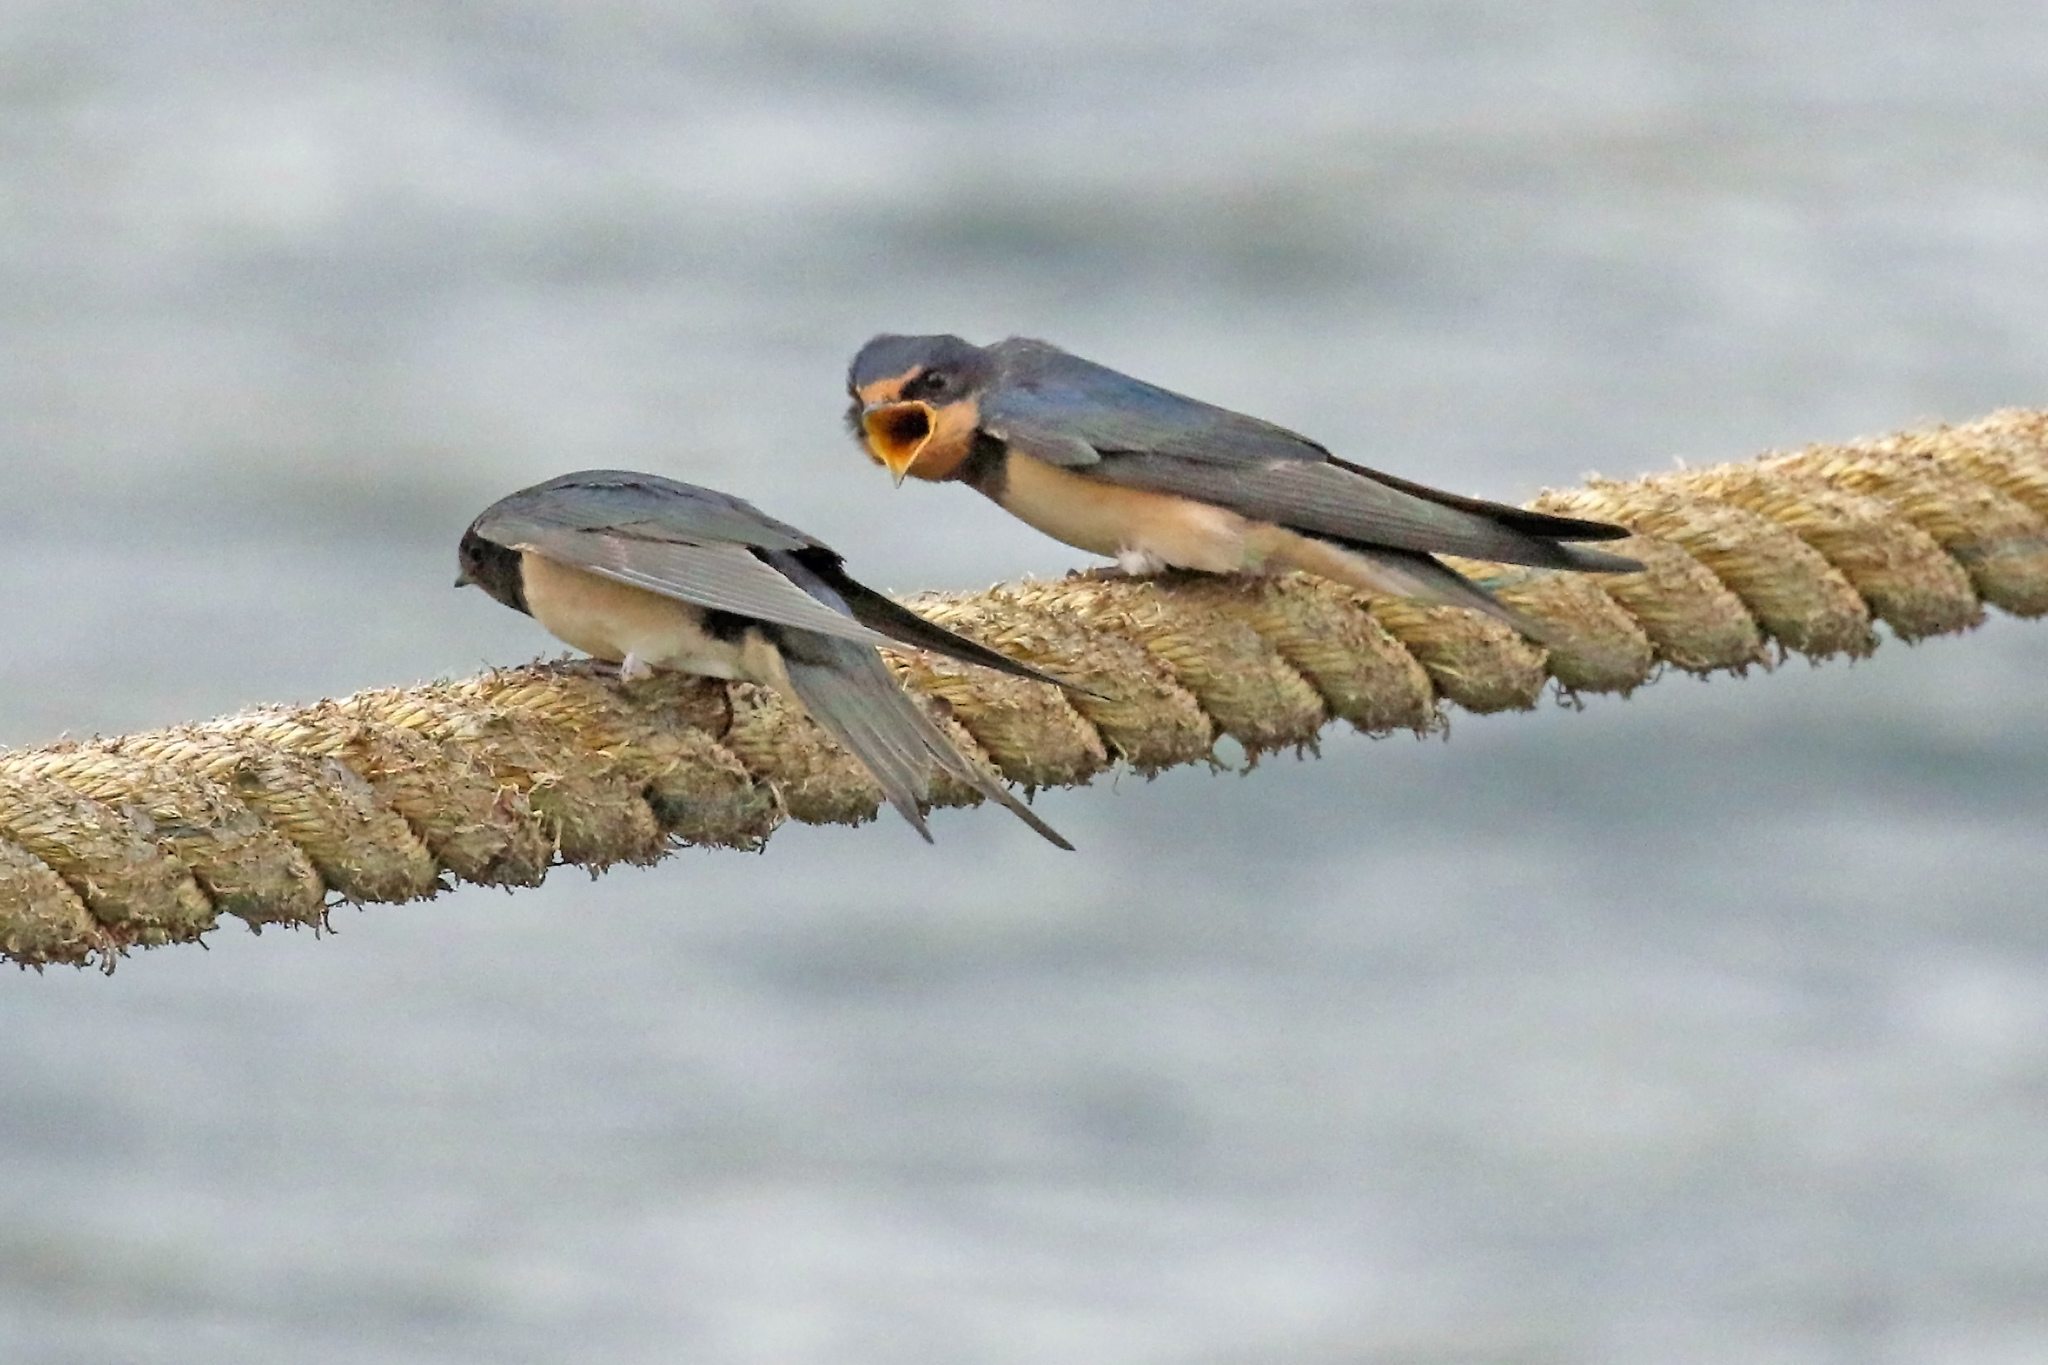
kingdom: Animalia
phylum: Chordata
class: Aves
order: Passeriformes
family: Hirundinidae
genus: Hirundo
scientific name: Hirundo rustica
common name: Barn swallow
